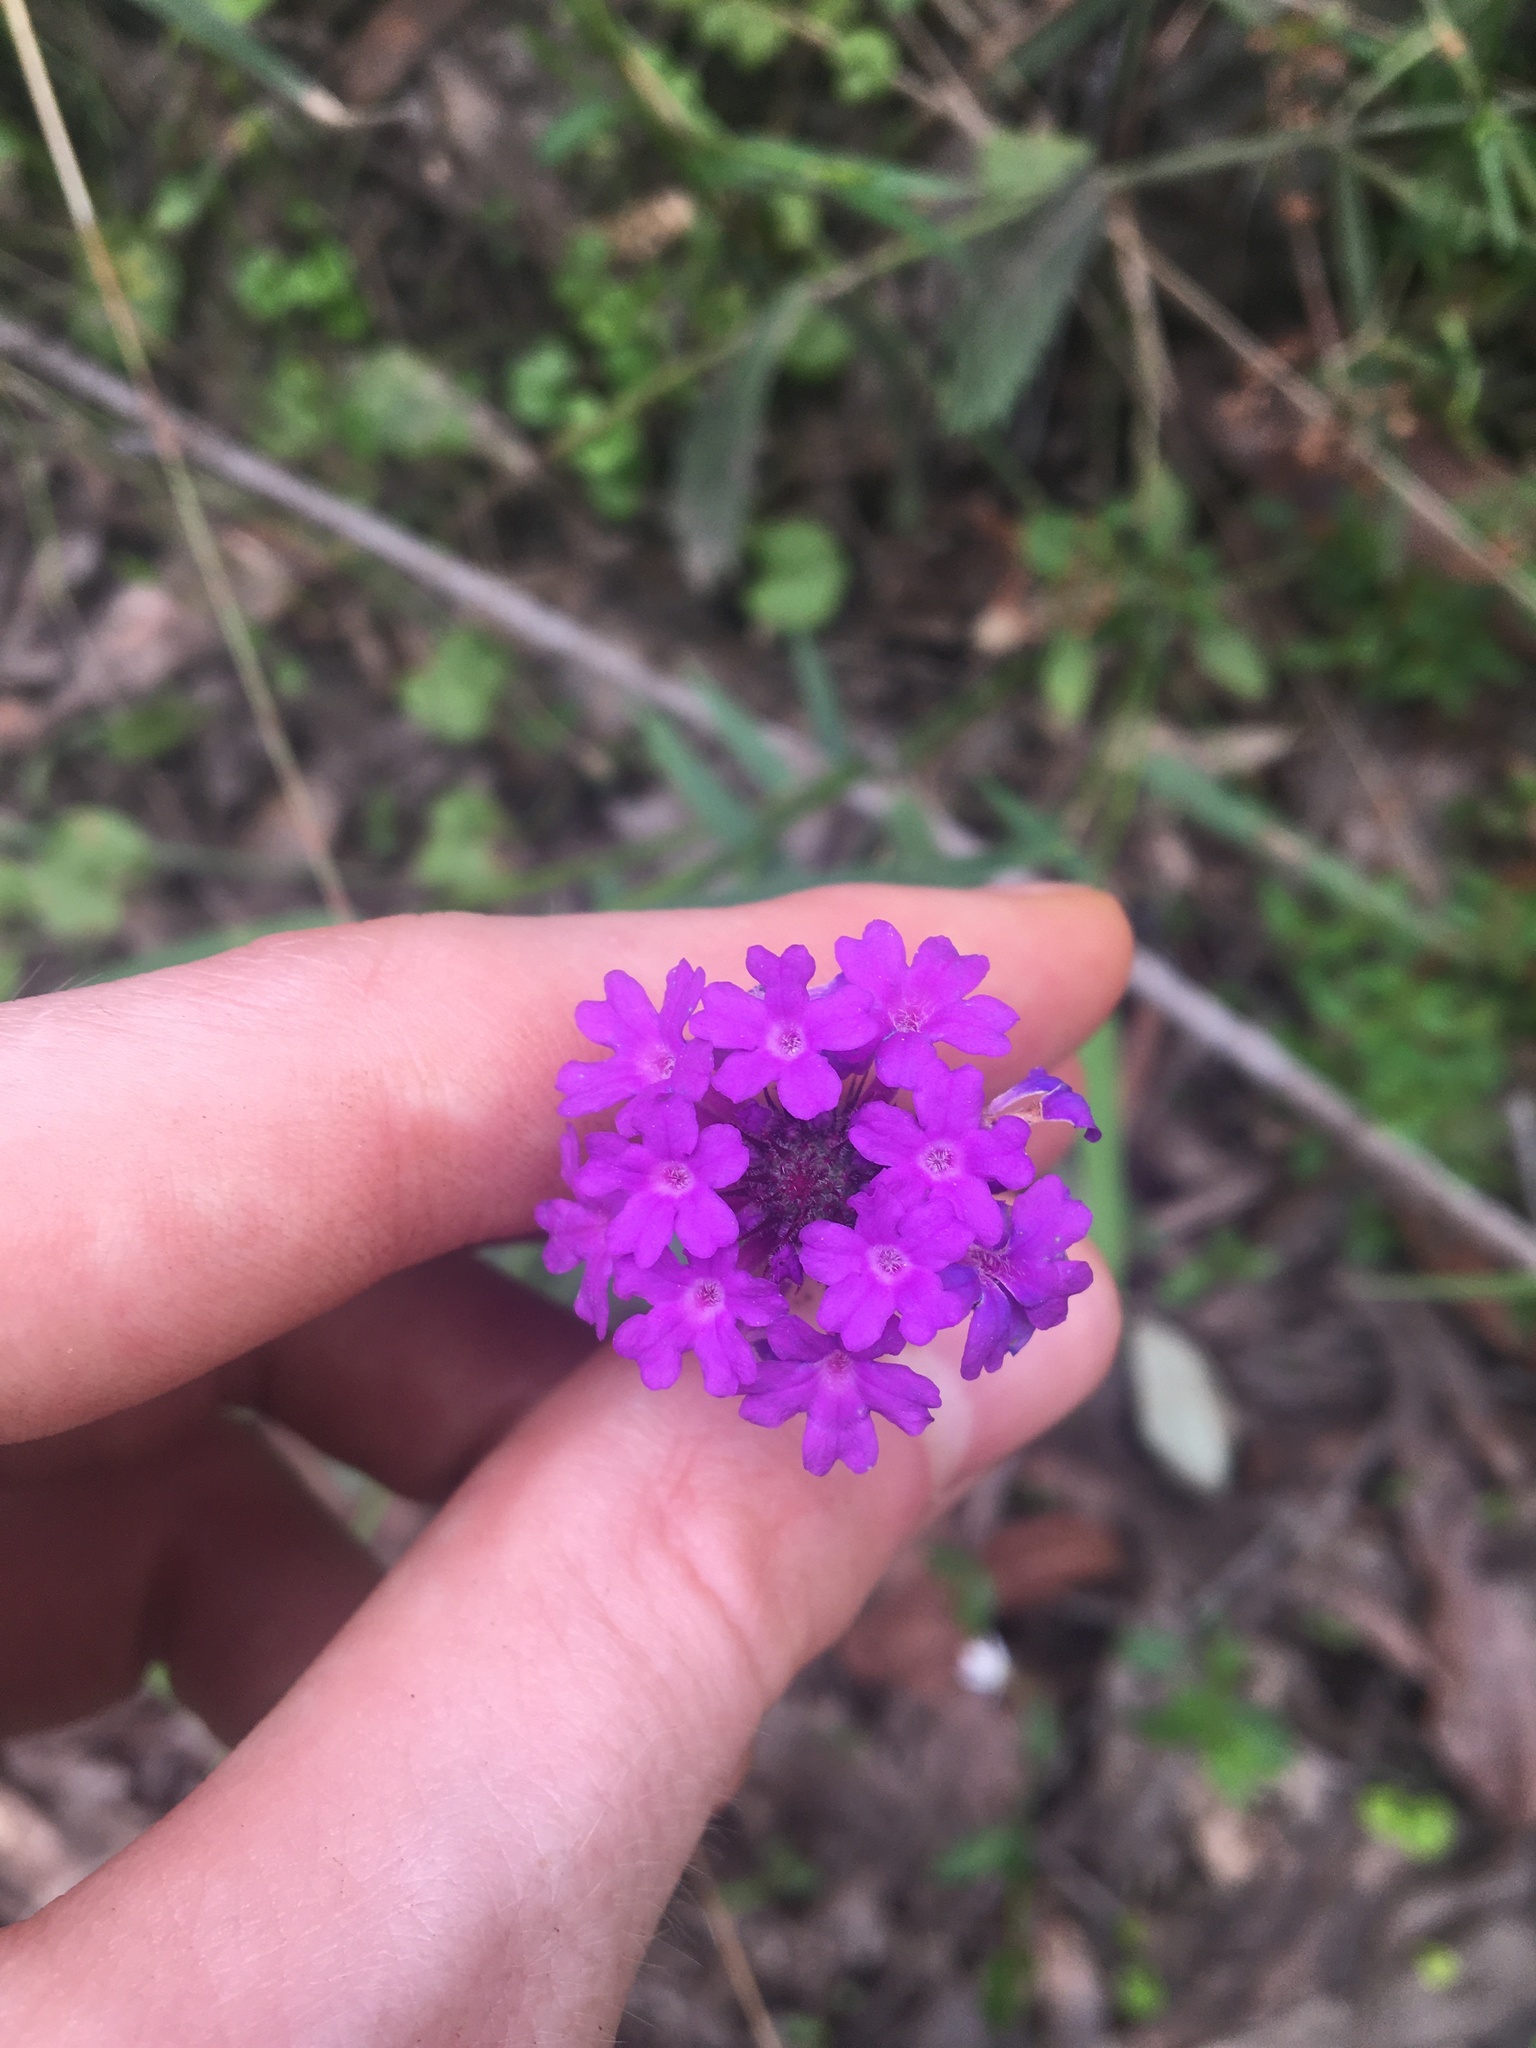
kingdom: Plantae
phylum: Tracheophyta
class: Magnoliopsida
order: Lamiales
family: Verbenaceae
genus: Verbena
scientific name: Verbena rigida
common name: Slender vervain
